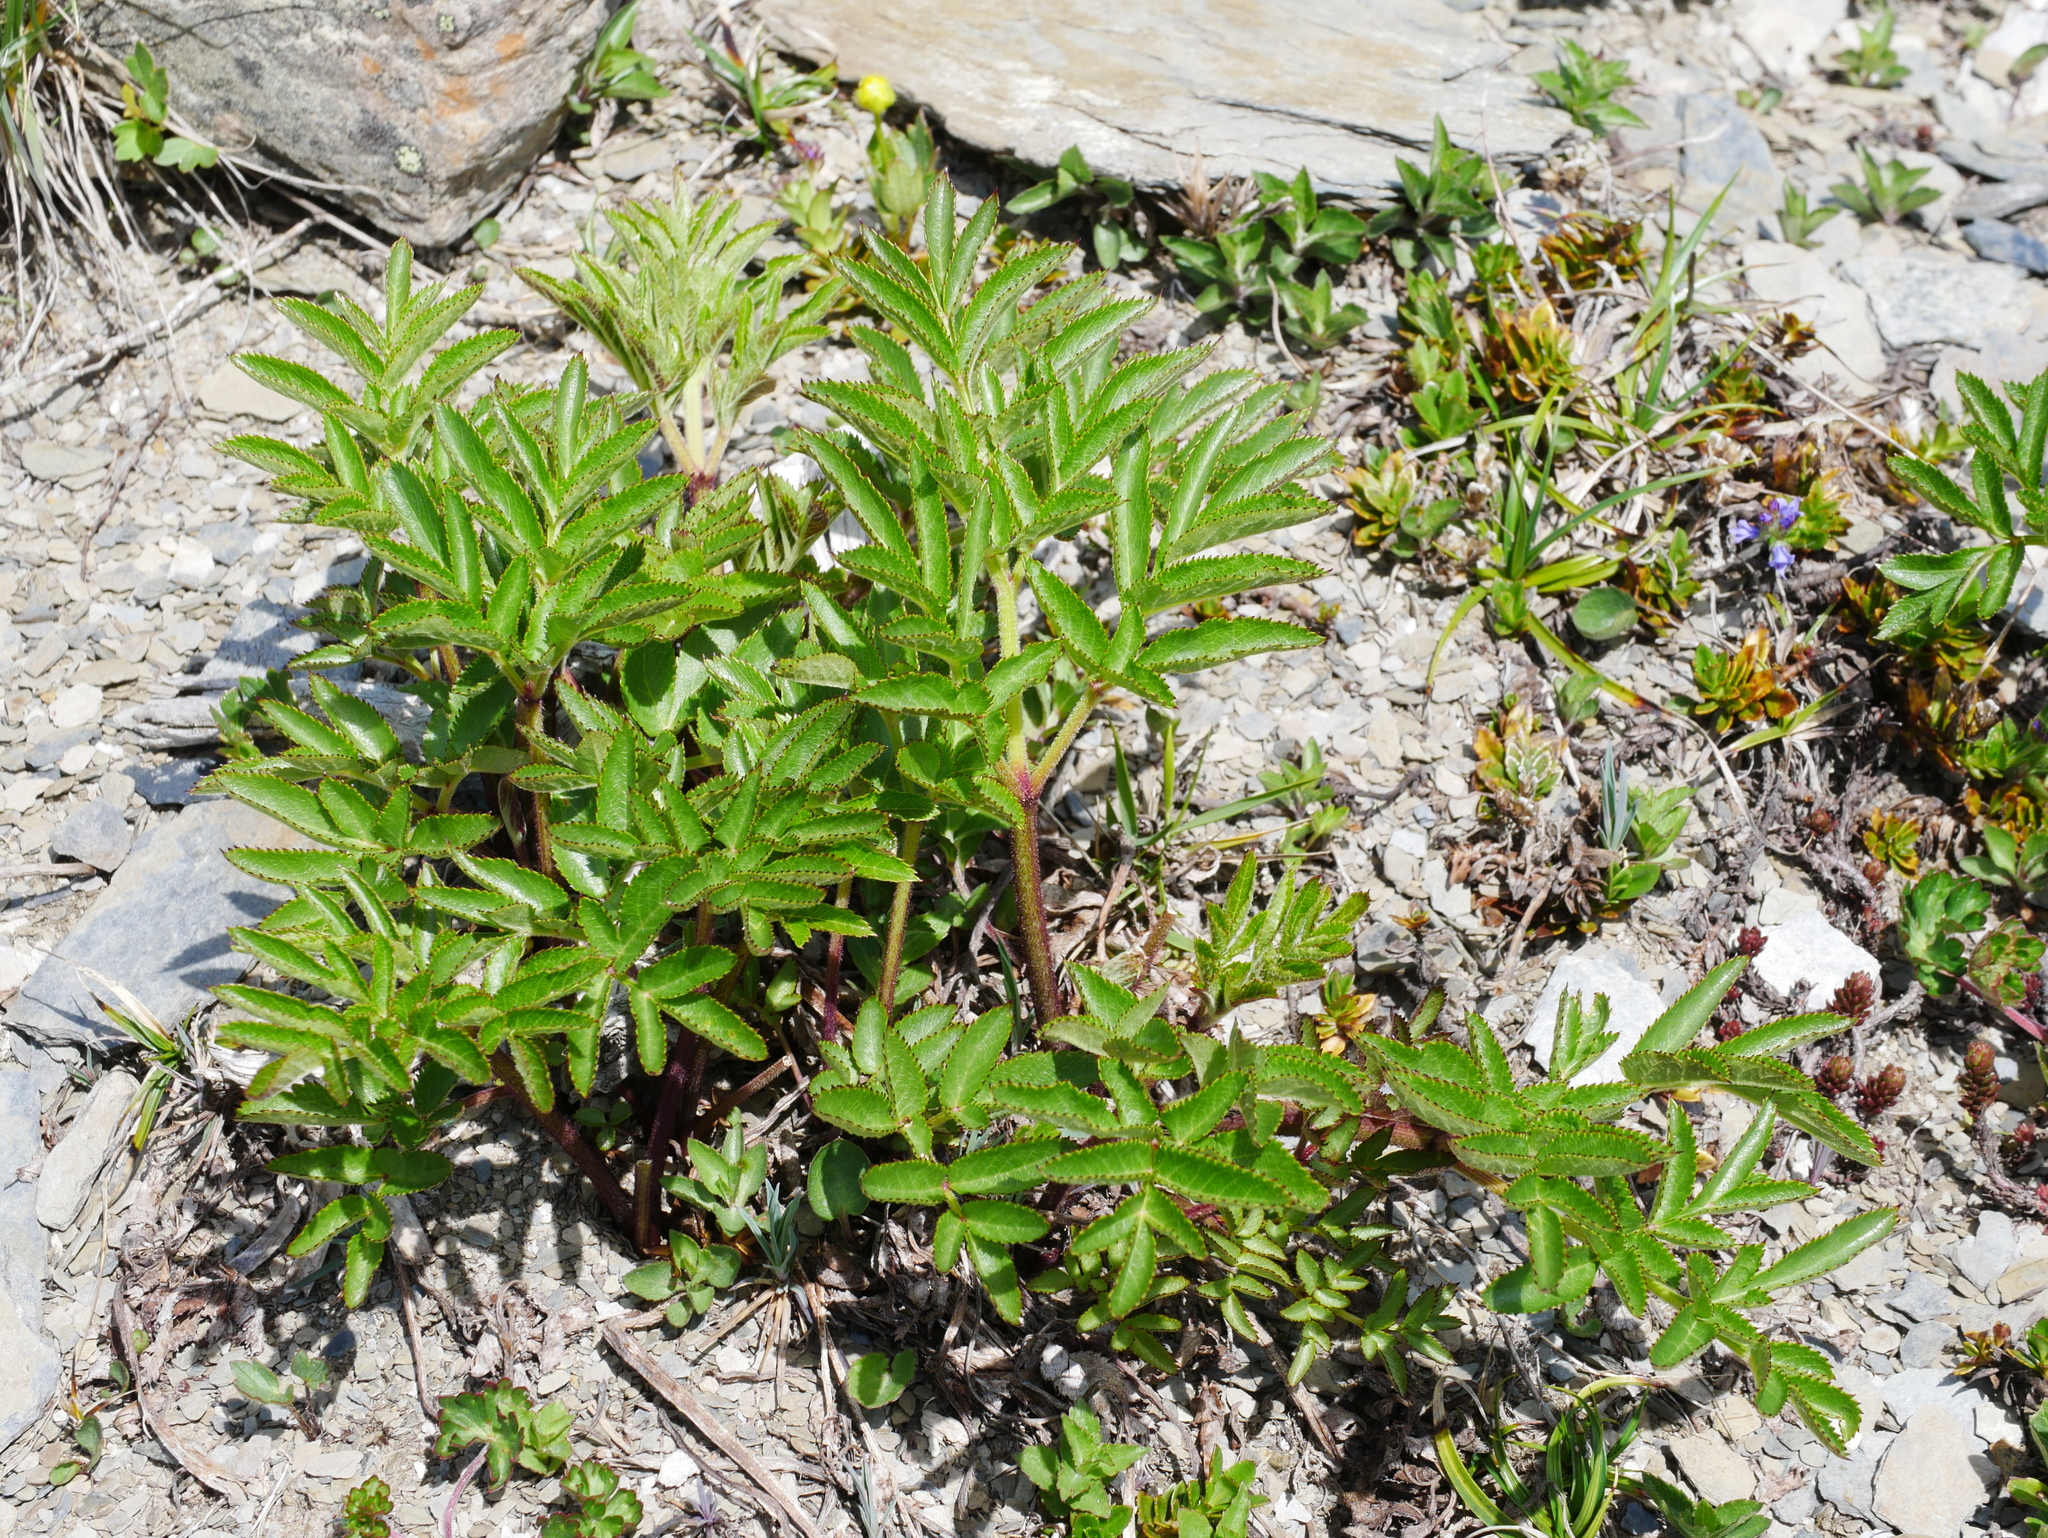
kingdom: Plantae
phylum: Tracheophyta
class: Magnoliopsida
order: Apiales
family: Apiaceae
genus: Angelica
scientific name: Angelica morrisonicola
